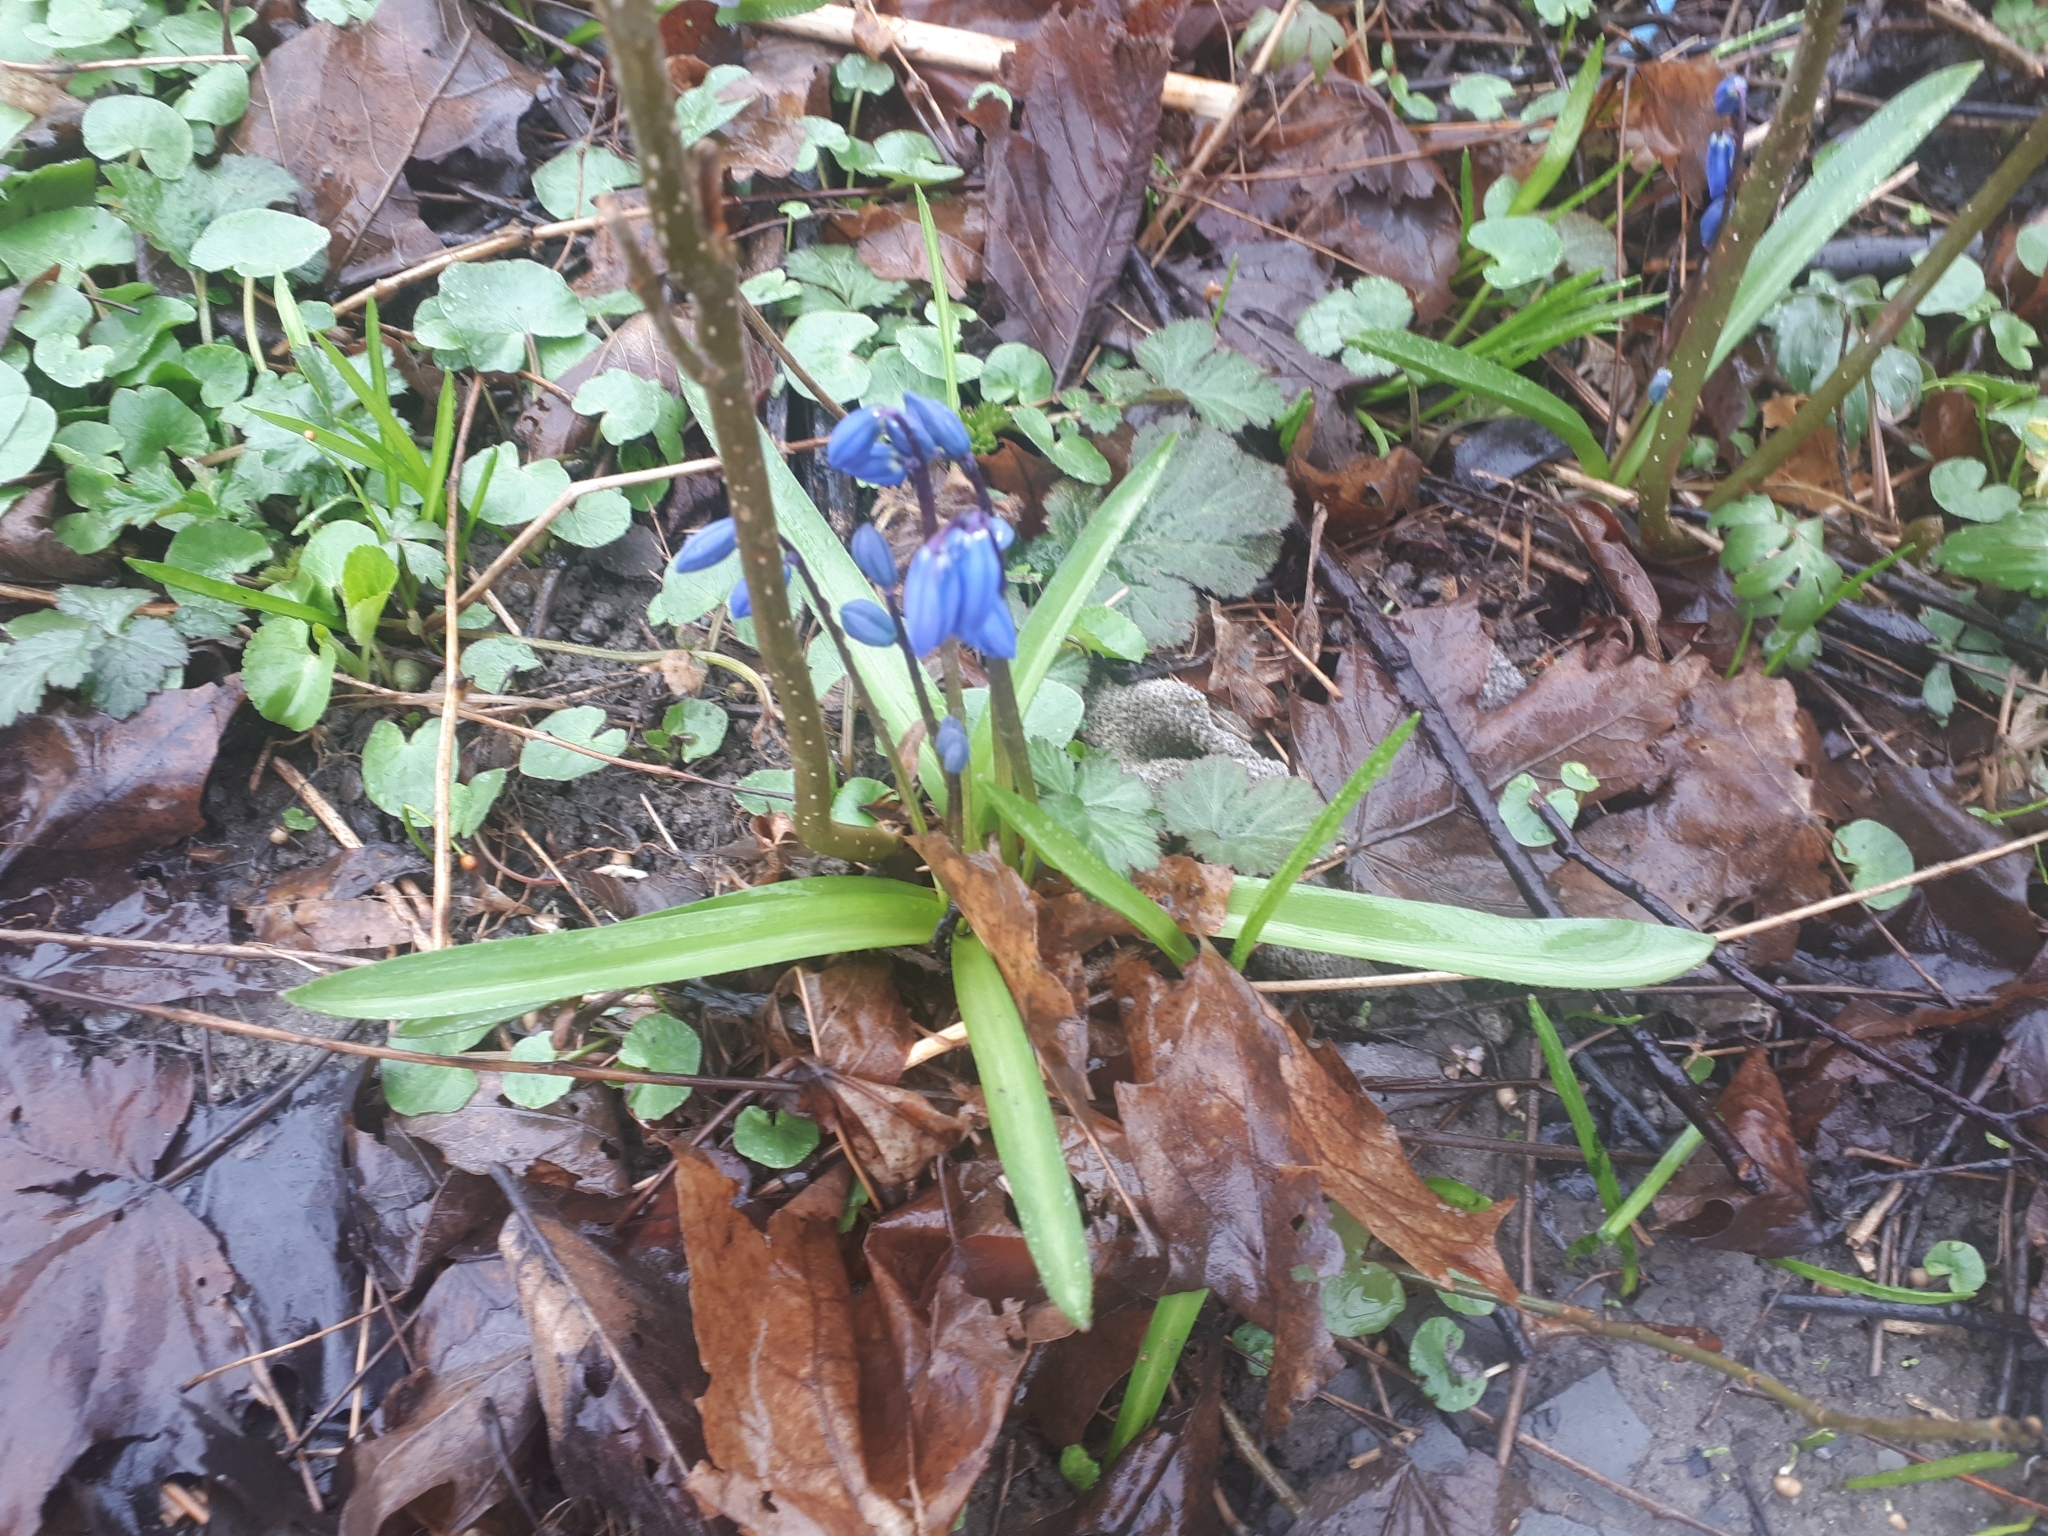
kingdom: Plantae
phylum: Tracheophyta
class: Liliopsida
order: Asparagales
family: Asparagaceae
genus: Scilla
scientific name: Scilla siberica
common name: Siberian squill
